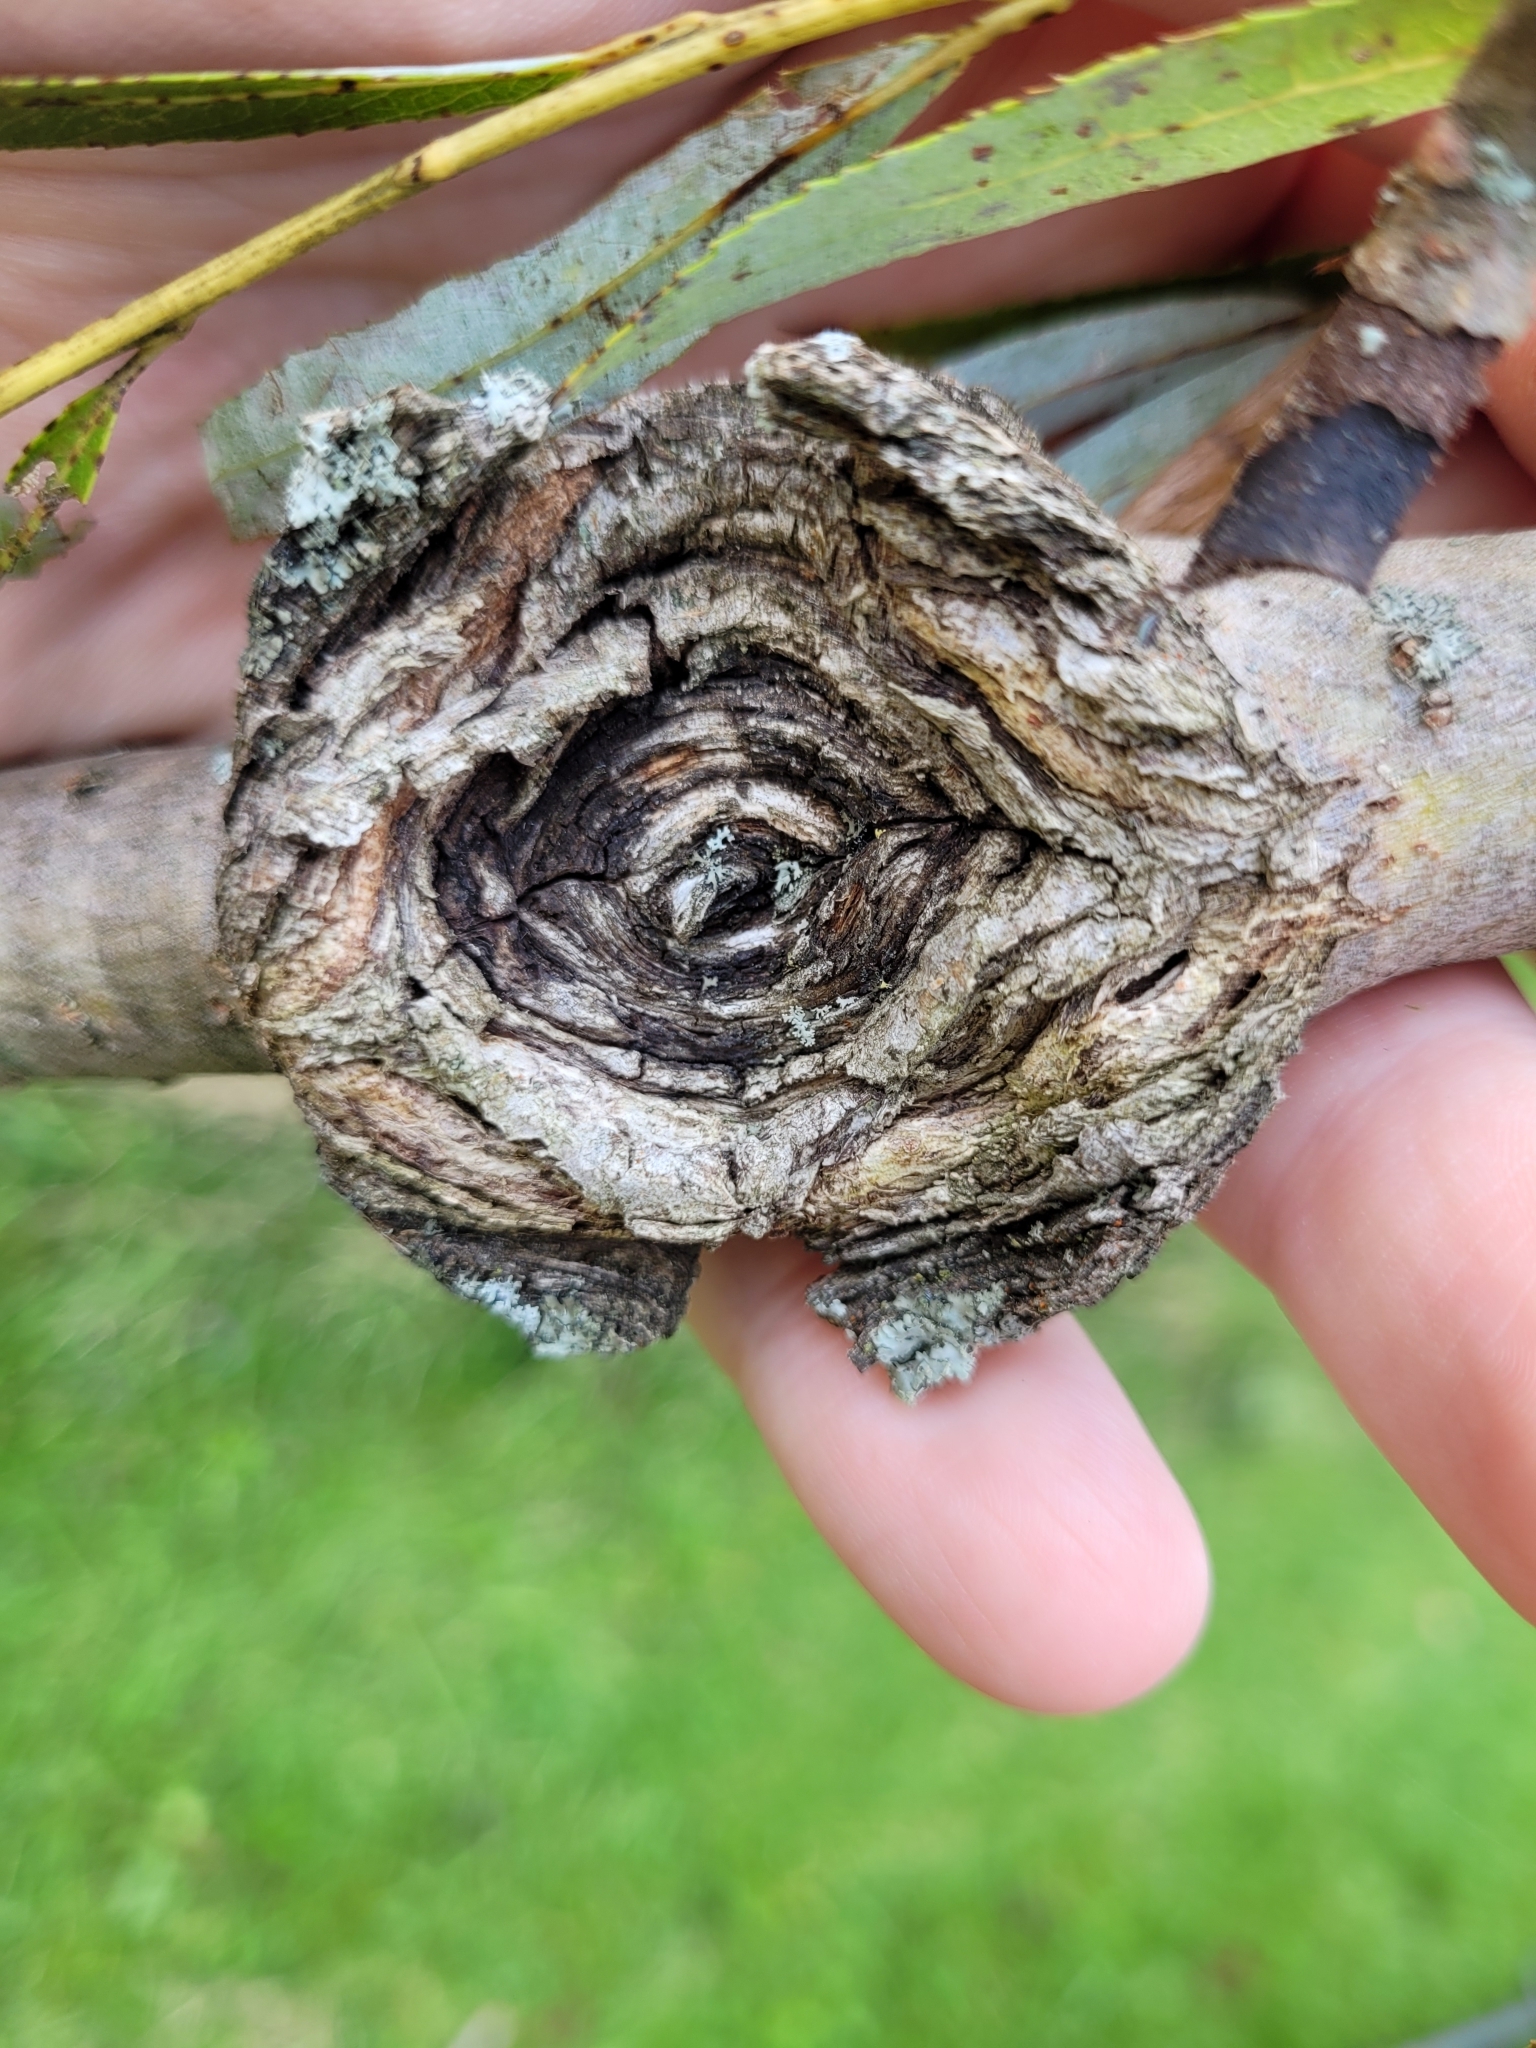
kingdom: Fungi
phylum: Ascomycota
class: Sordariomycetes
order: Hypocreales
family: Nectriaceae
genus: Neonectria
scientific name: Neonectria ditissima
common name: Apple canker
